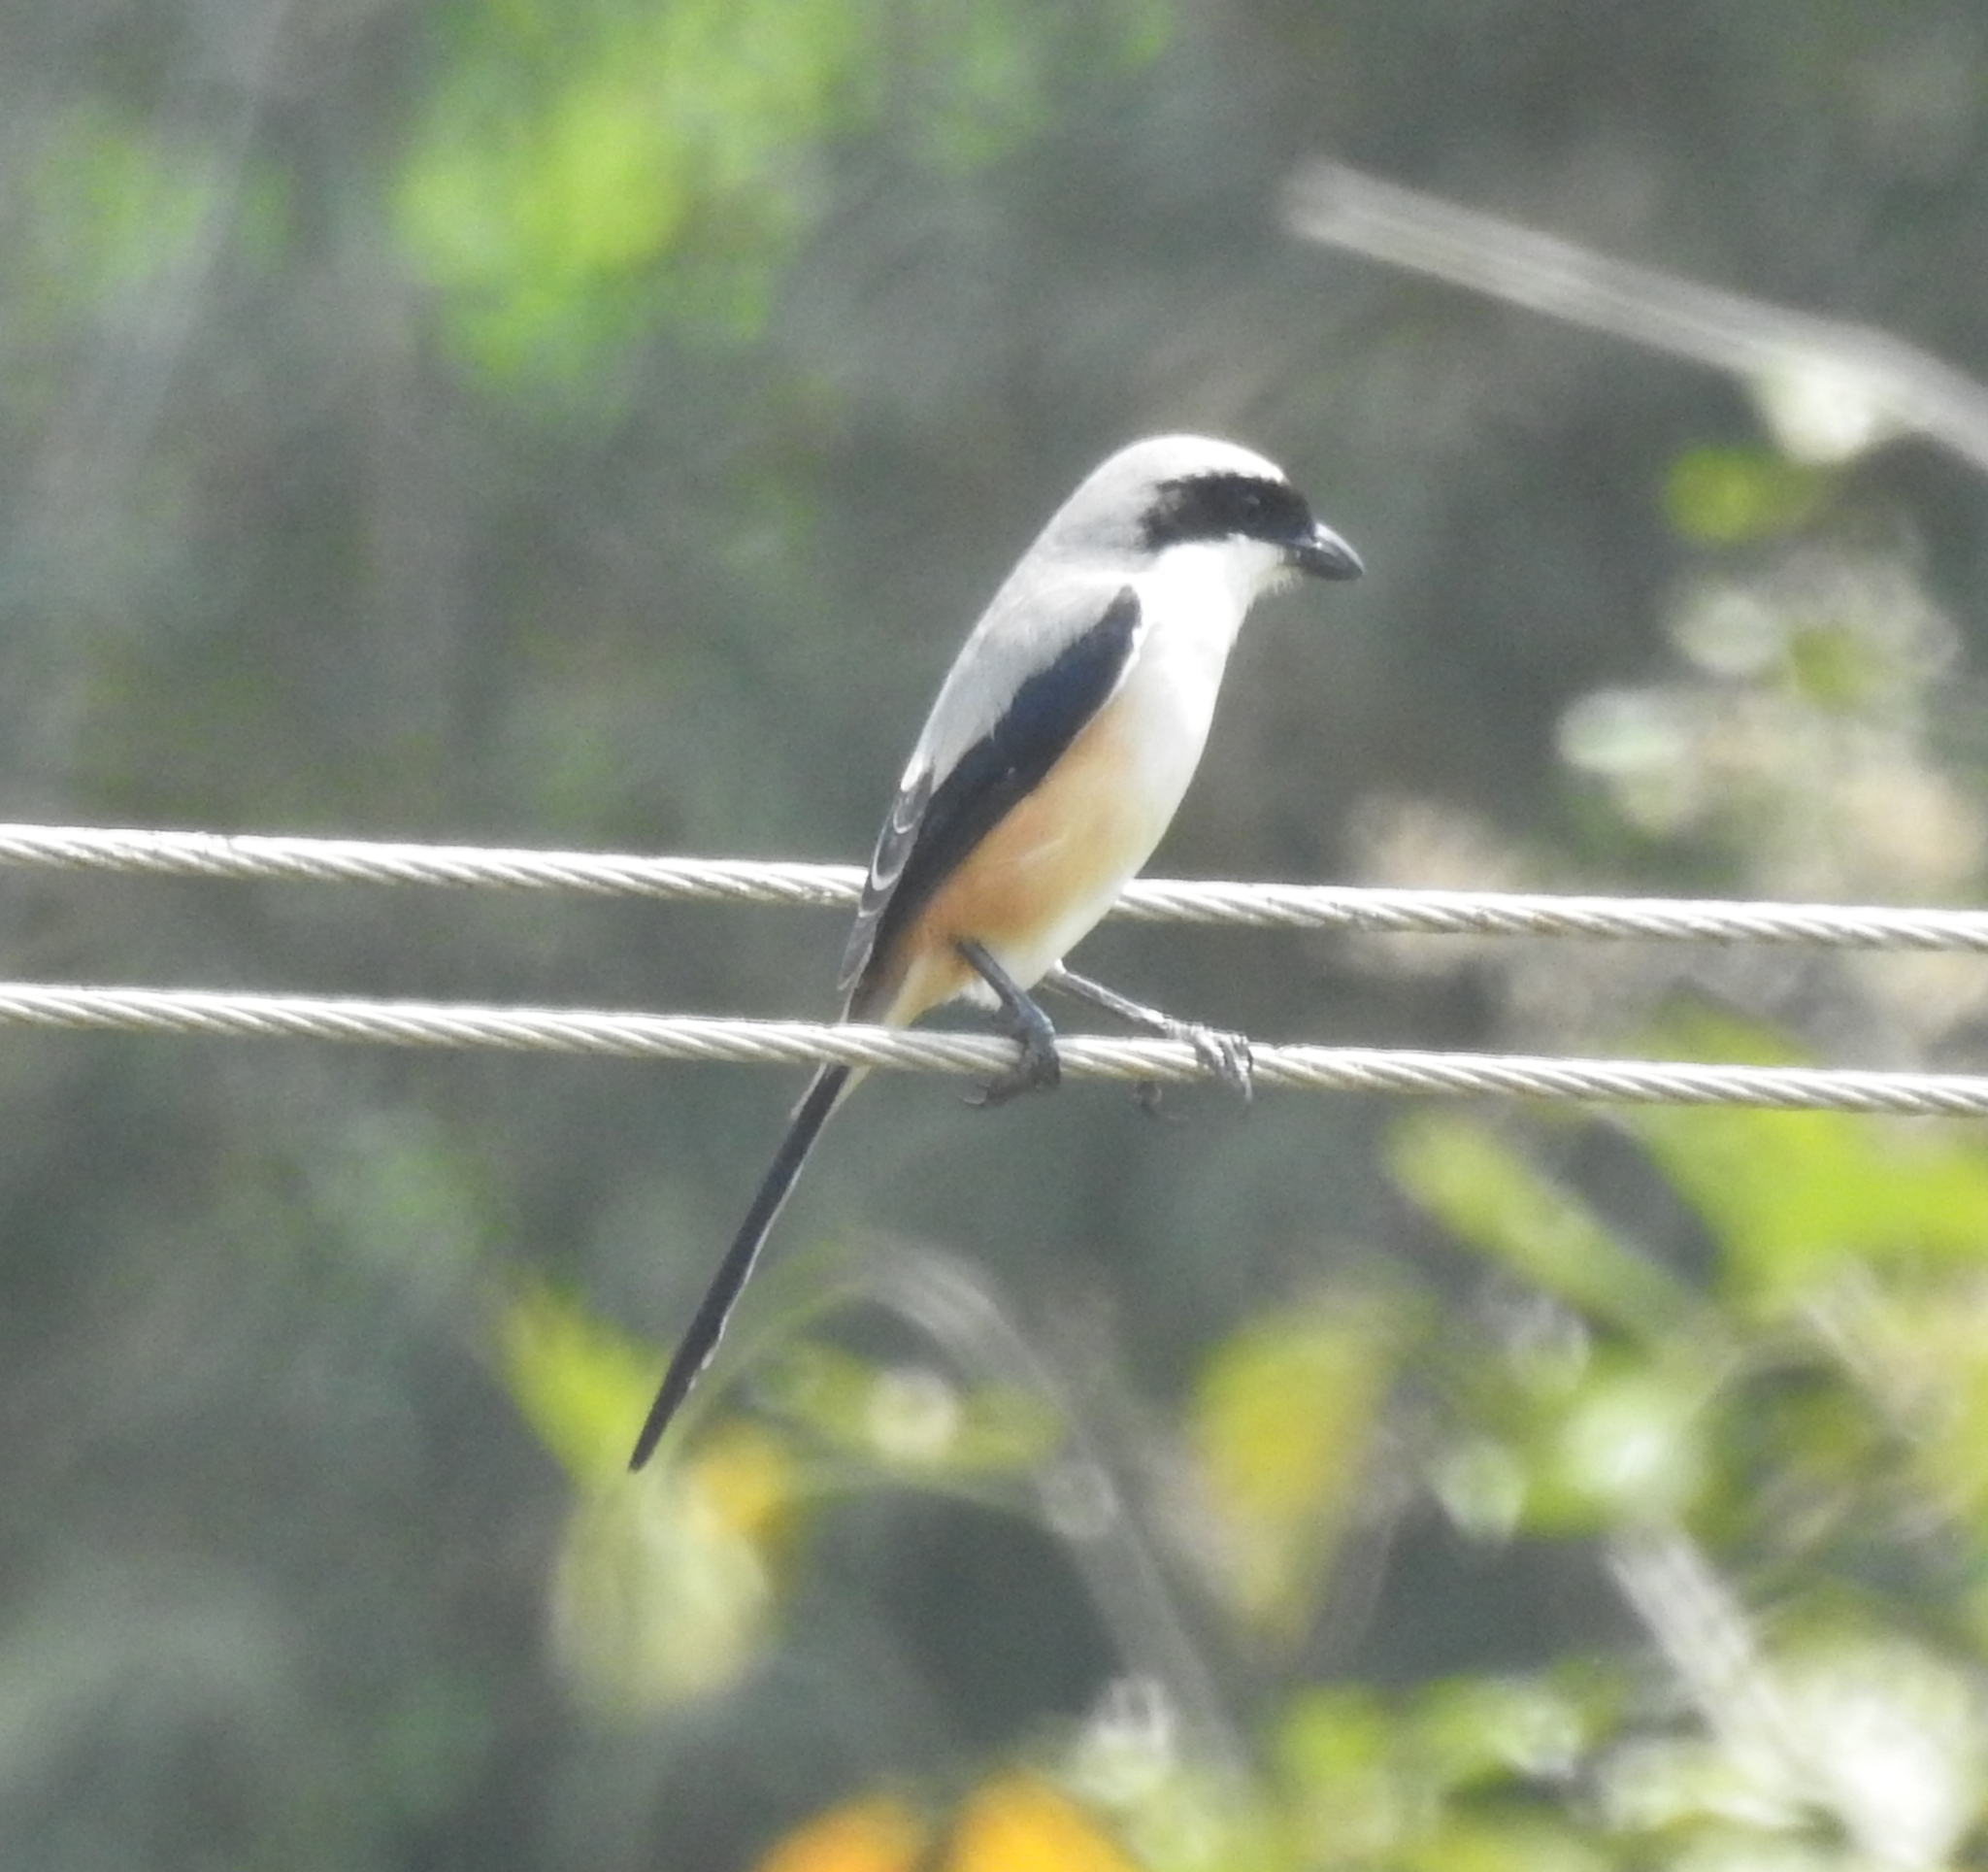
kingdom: Animalia
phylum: Chordata
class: Aves
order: Passeriformes
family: Laniidae
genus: Lanius
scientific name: Lanius schach
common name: Long-tailed shrike
